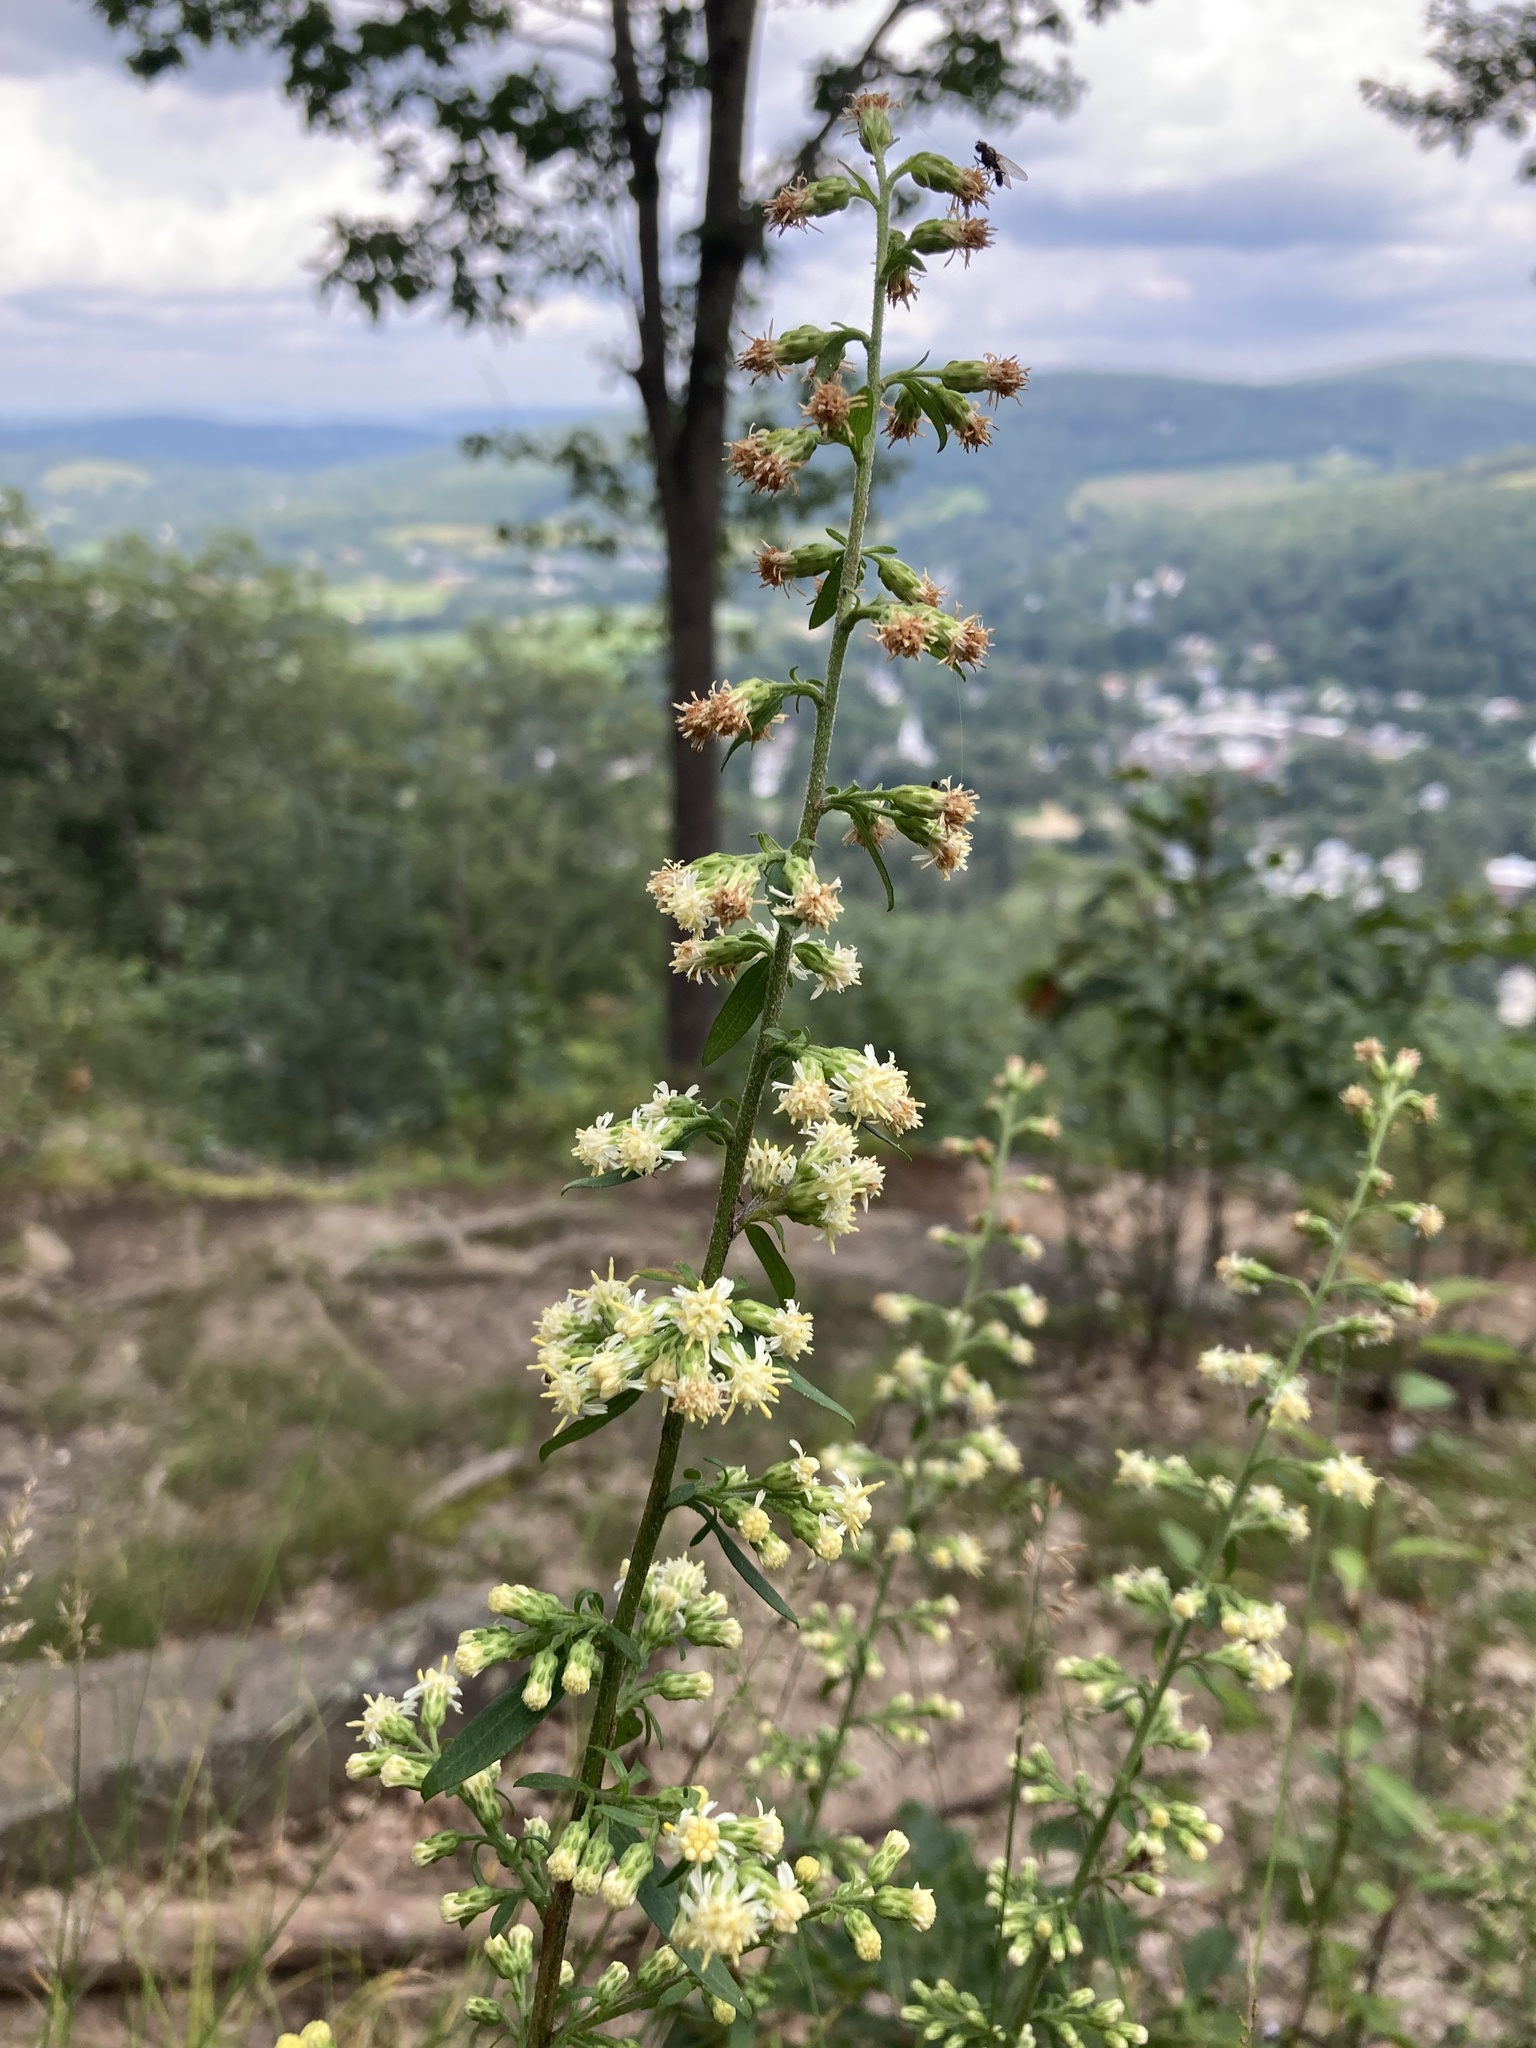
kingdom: Plantae
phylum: Tracheophyta
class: Magnoliopsida
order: Asterales
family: Asteraceae
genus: Solidago
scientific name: Solidago bicolor
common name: Silverrod
